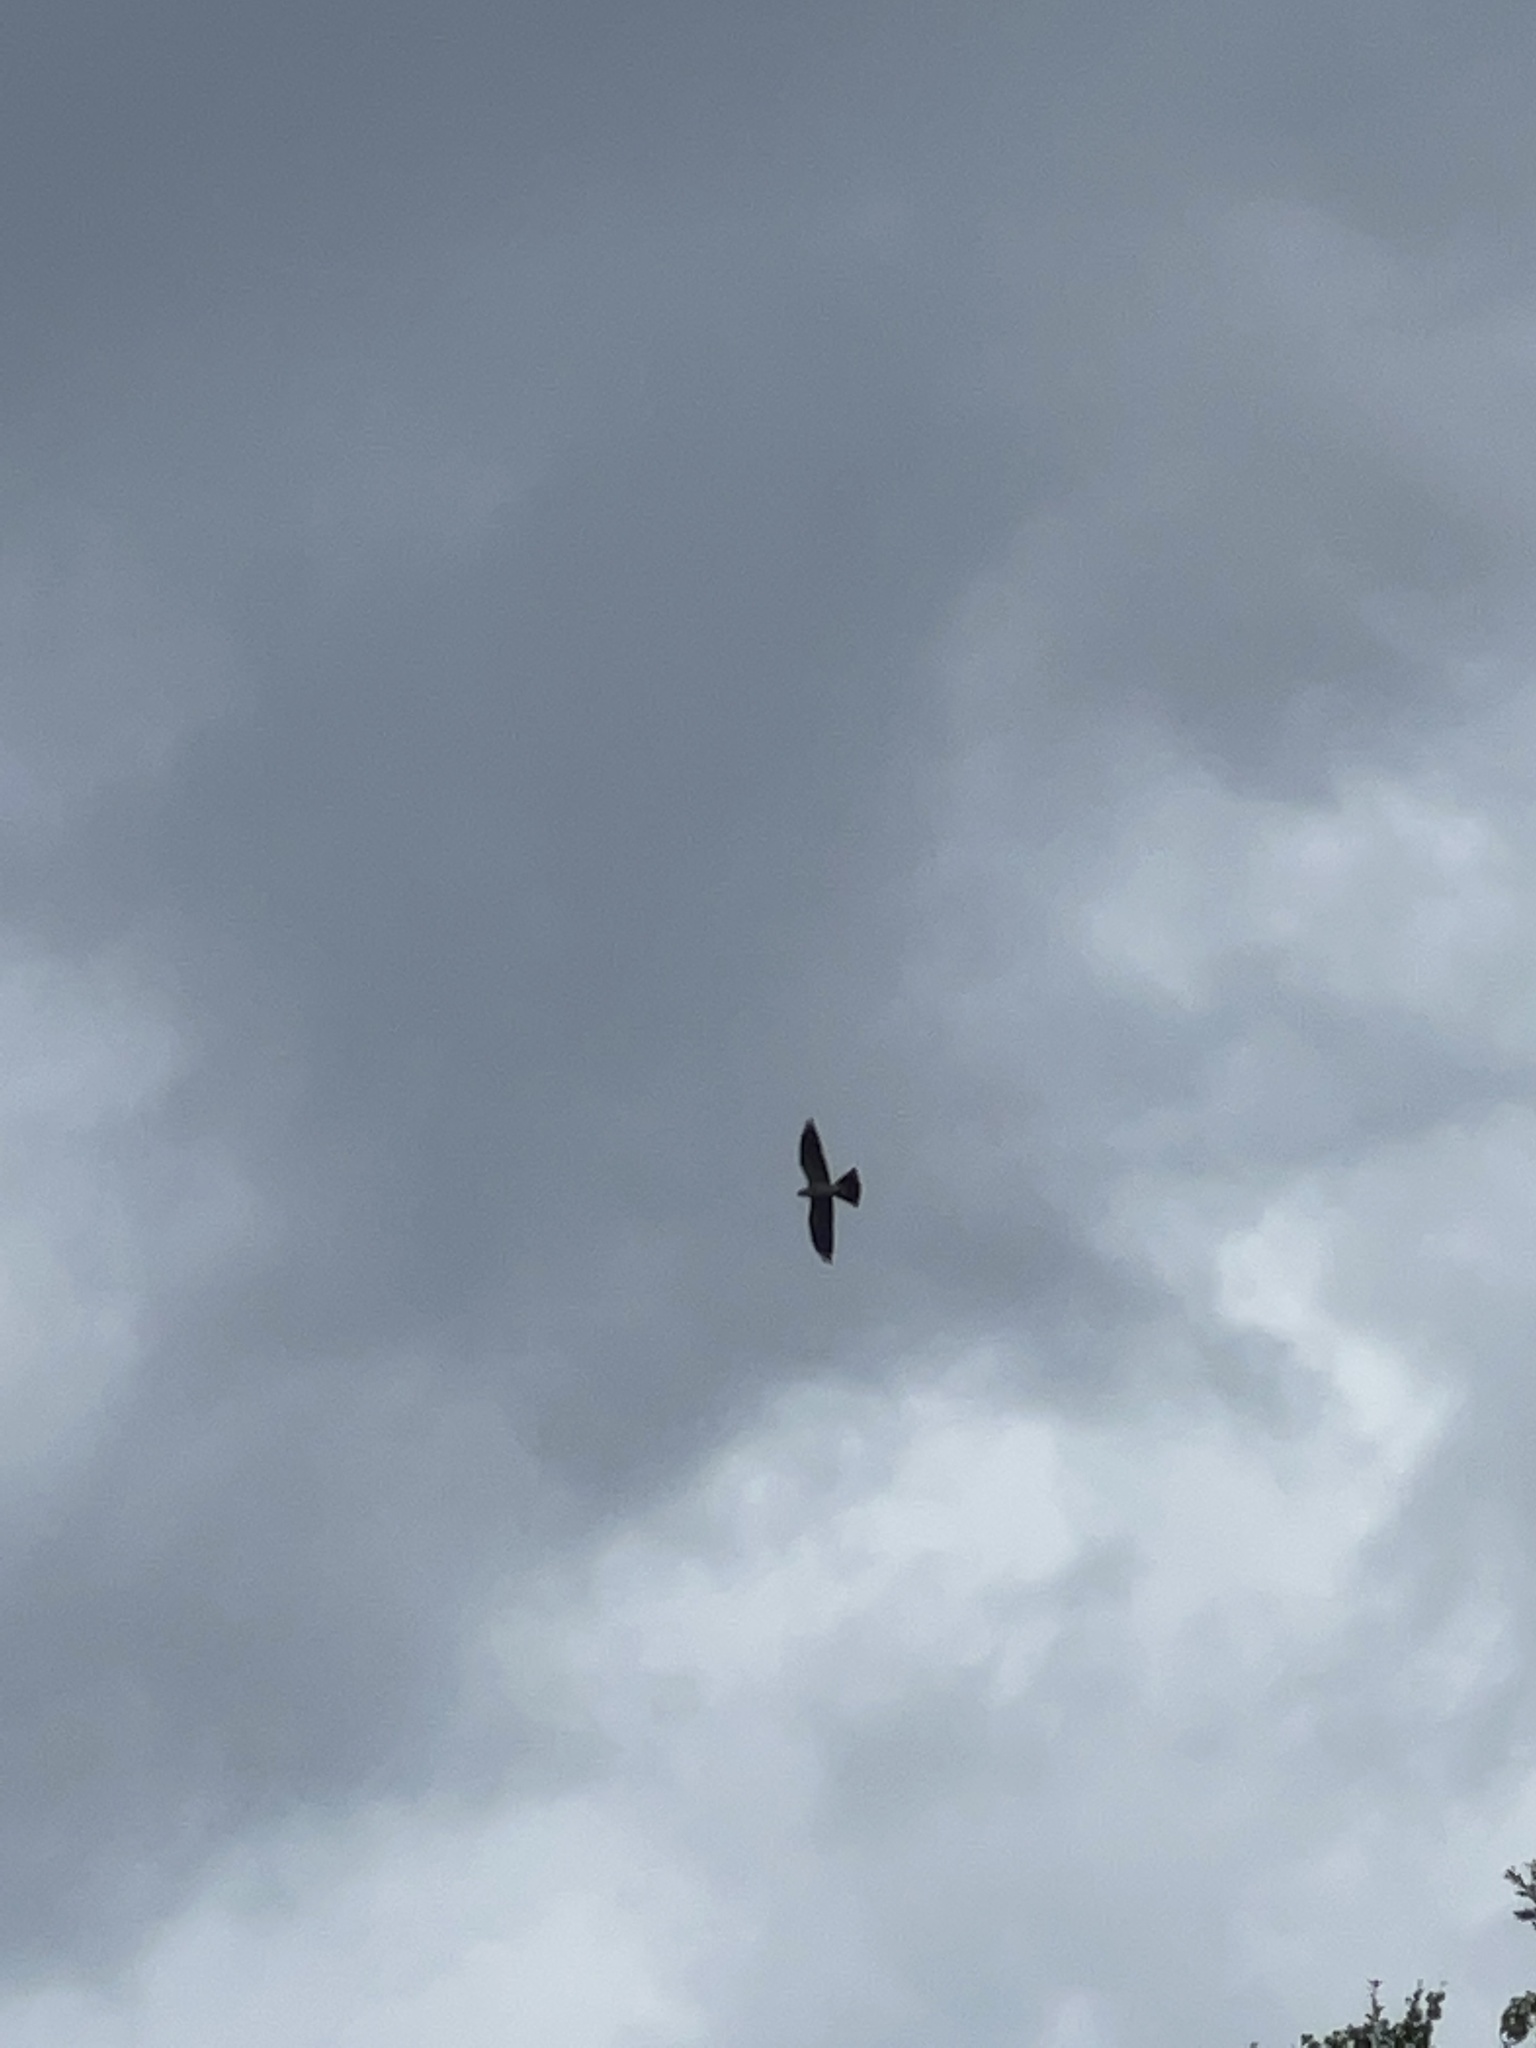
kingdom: Animalia
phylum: Chordata
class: Aves
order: Accipitriformes
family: Accipitridae
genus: Ictinia
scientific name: Ictinia mississippiensis
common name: Mississippi kite
